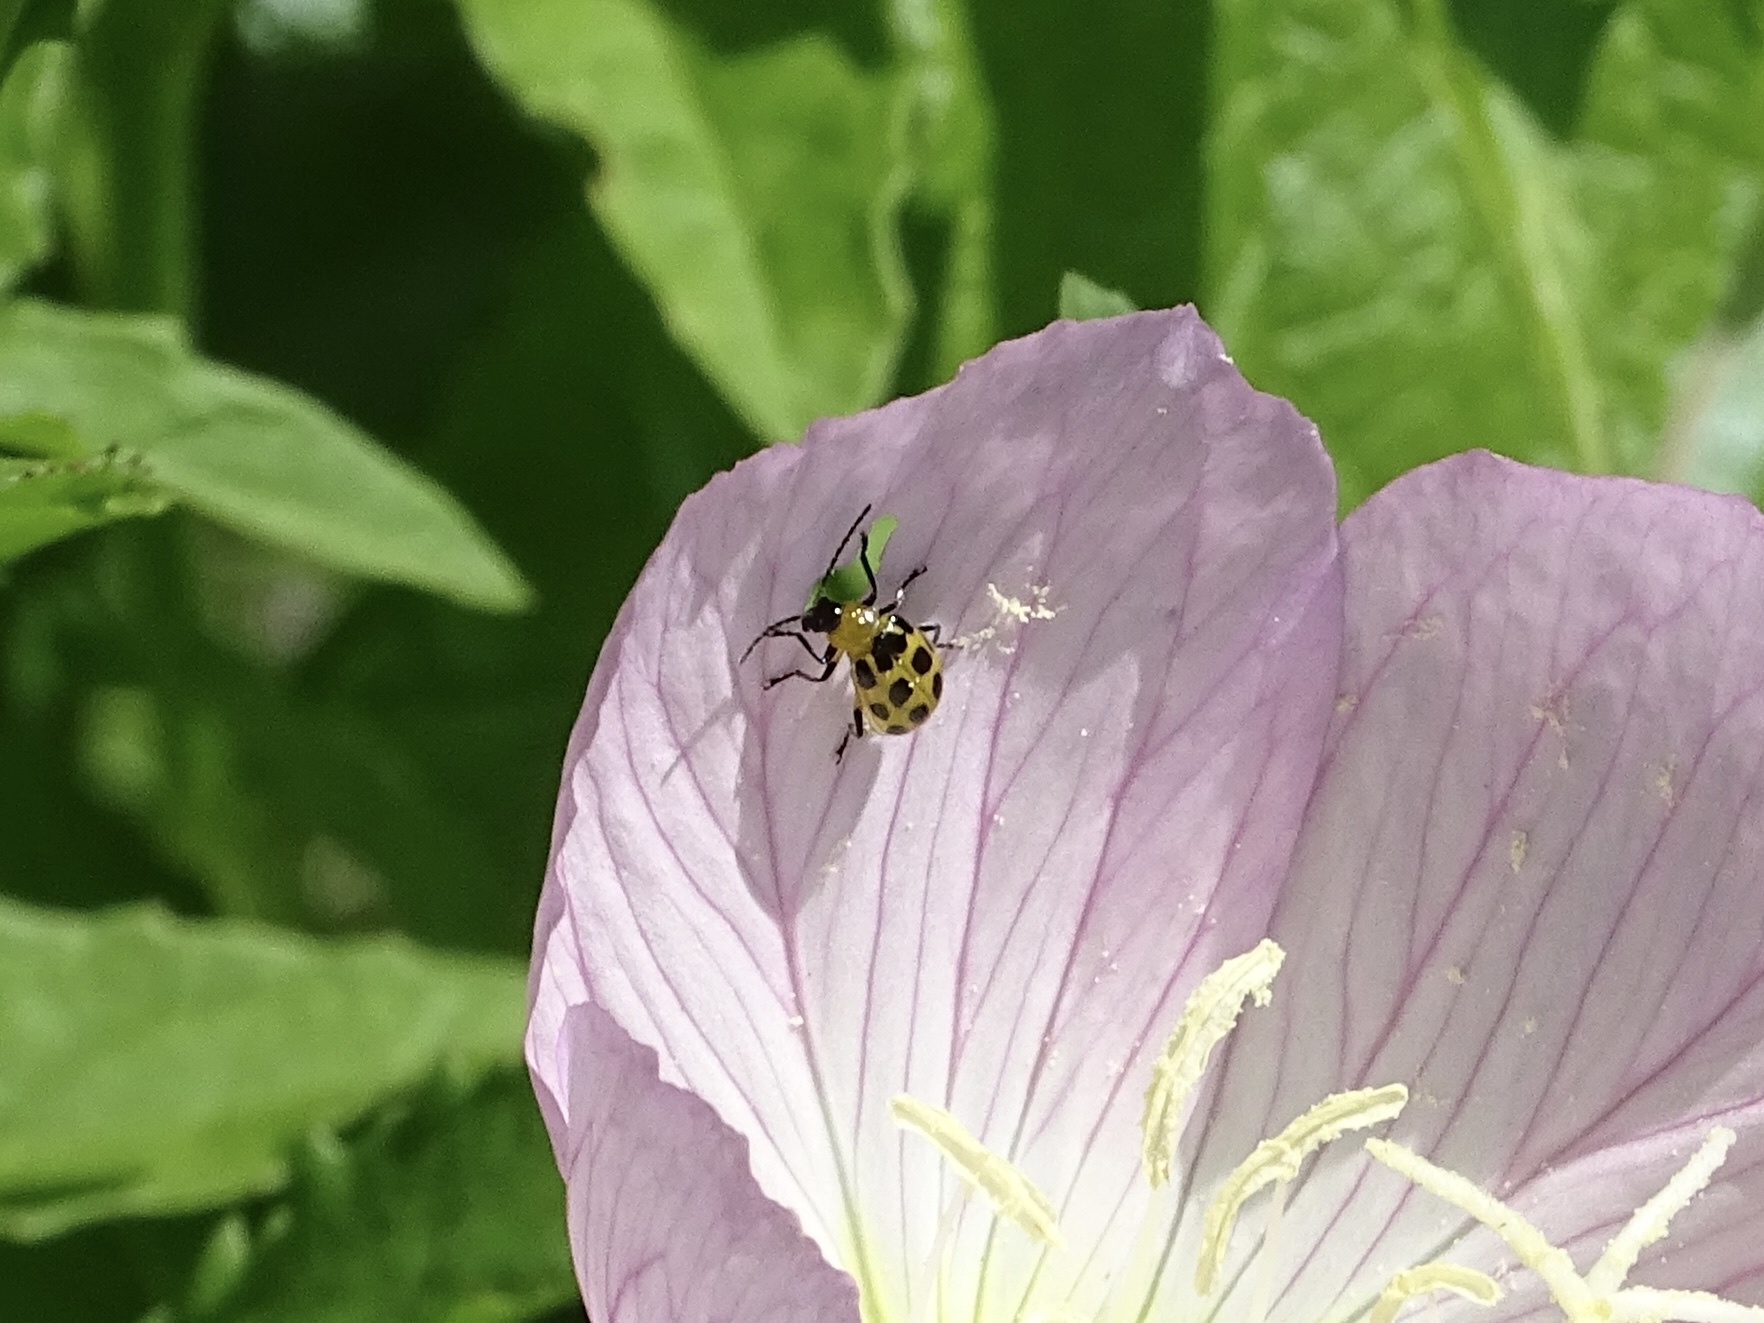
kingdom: Animalia
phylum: Arthropoda
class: Insecta
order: Coleoptera
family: Chrysomelidae
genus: Diabrotica
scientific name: Diabrotica undecimpunctata
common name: Spotted cucumber beetle
